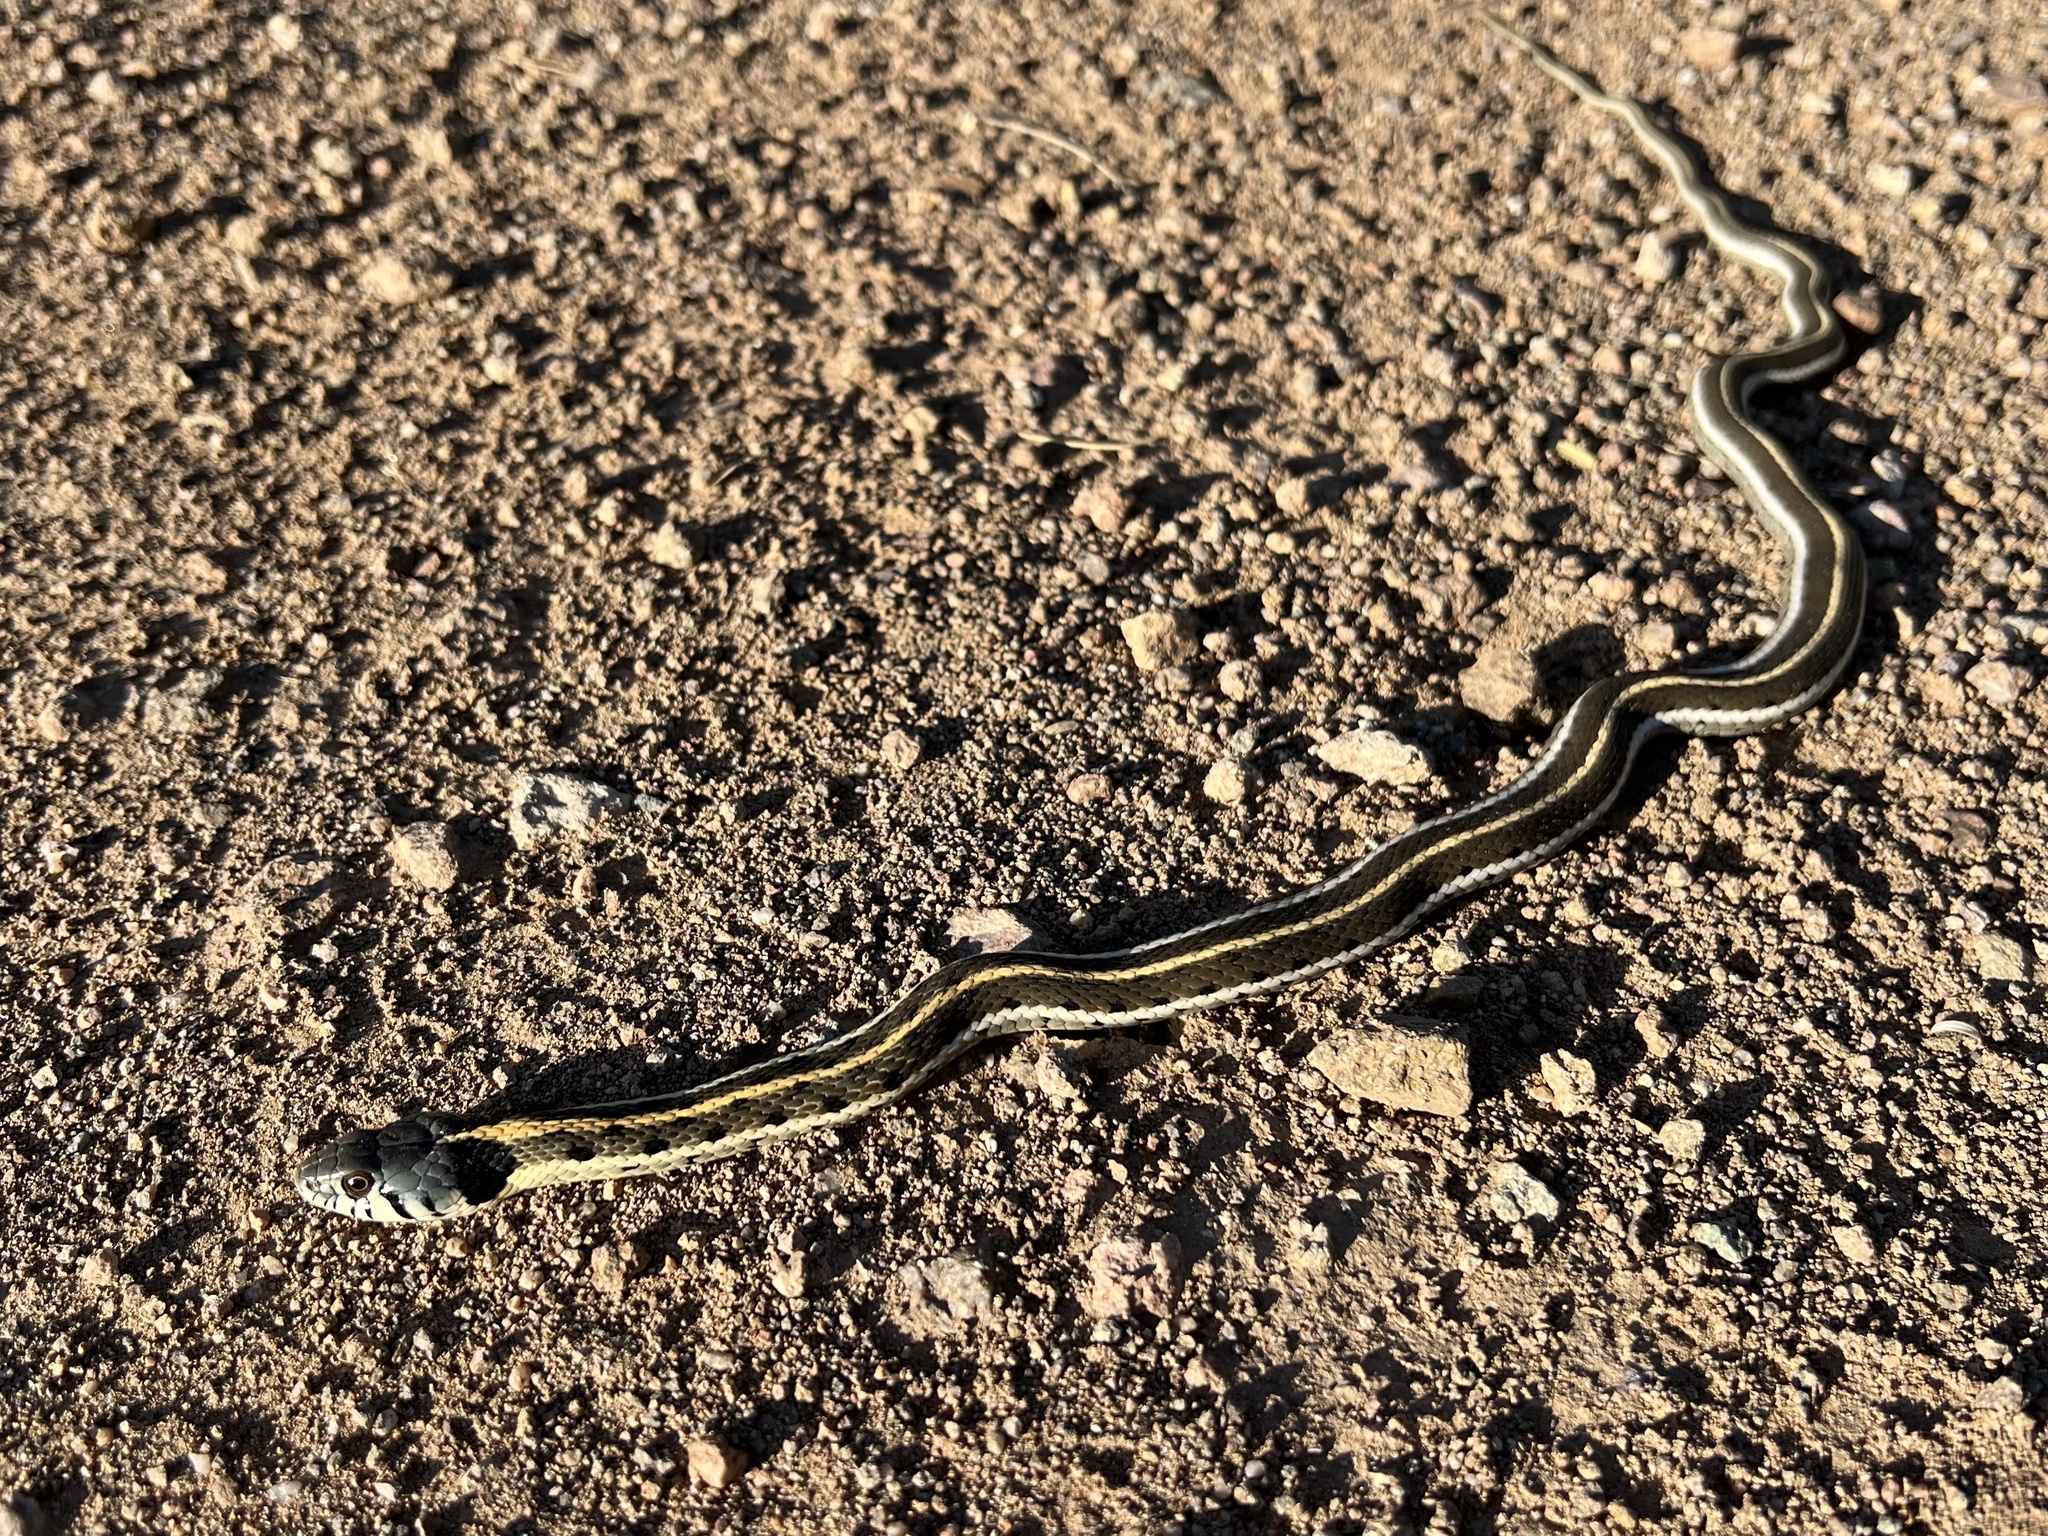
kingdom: Animalia
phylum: Chordata
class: Squamata
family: Colubridae
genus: Thamnophis
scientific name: Thamnophis cyrtopsis
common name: Black-necked gartersnake
